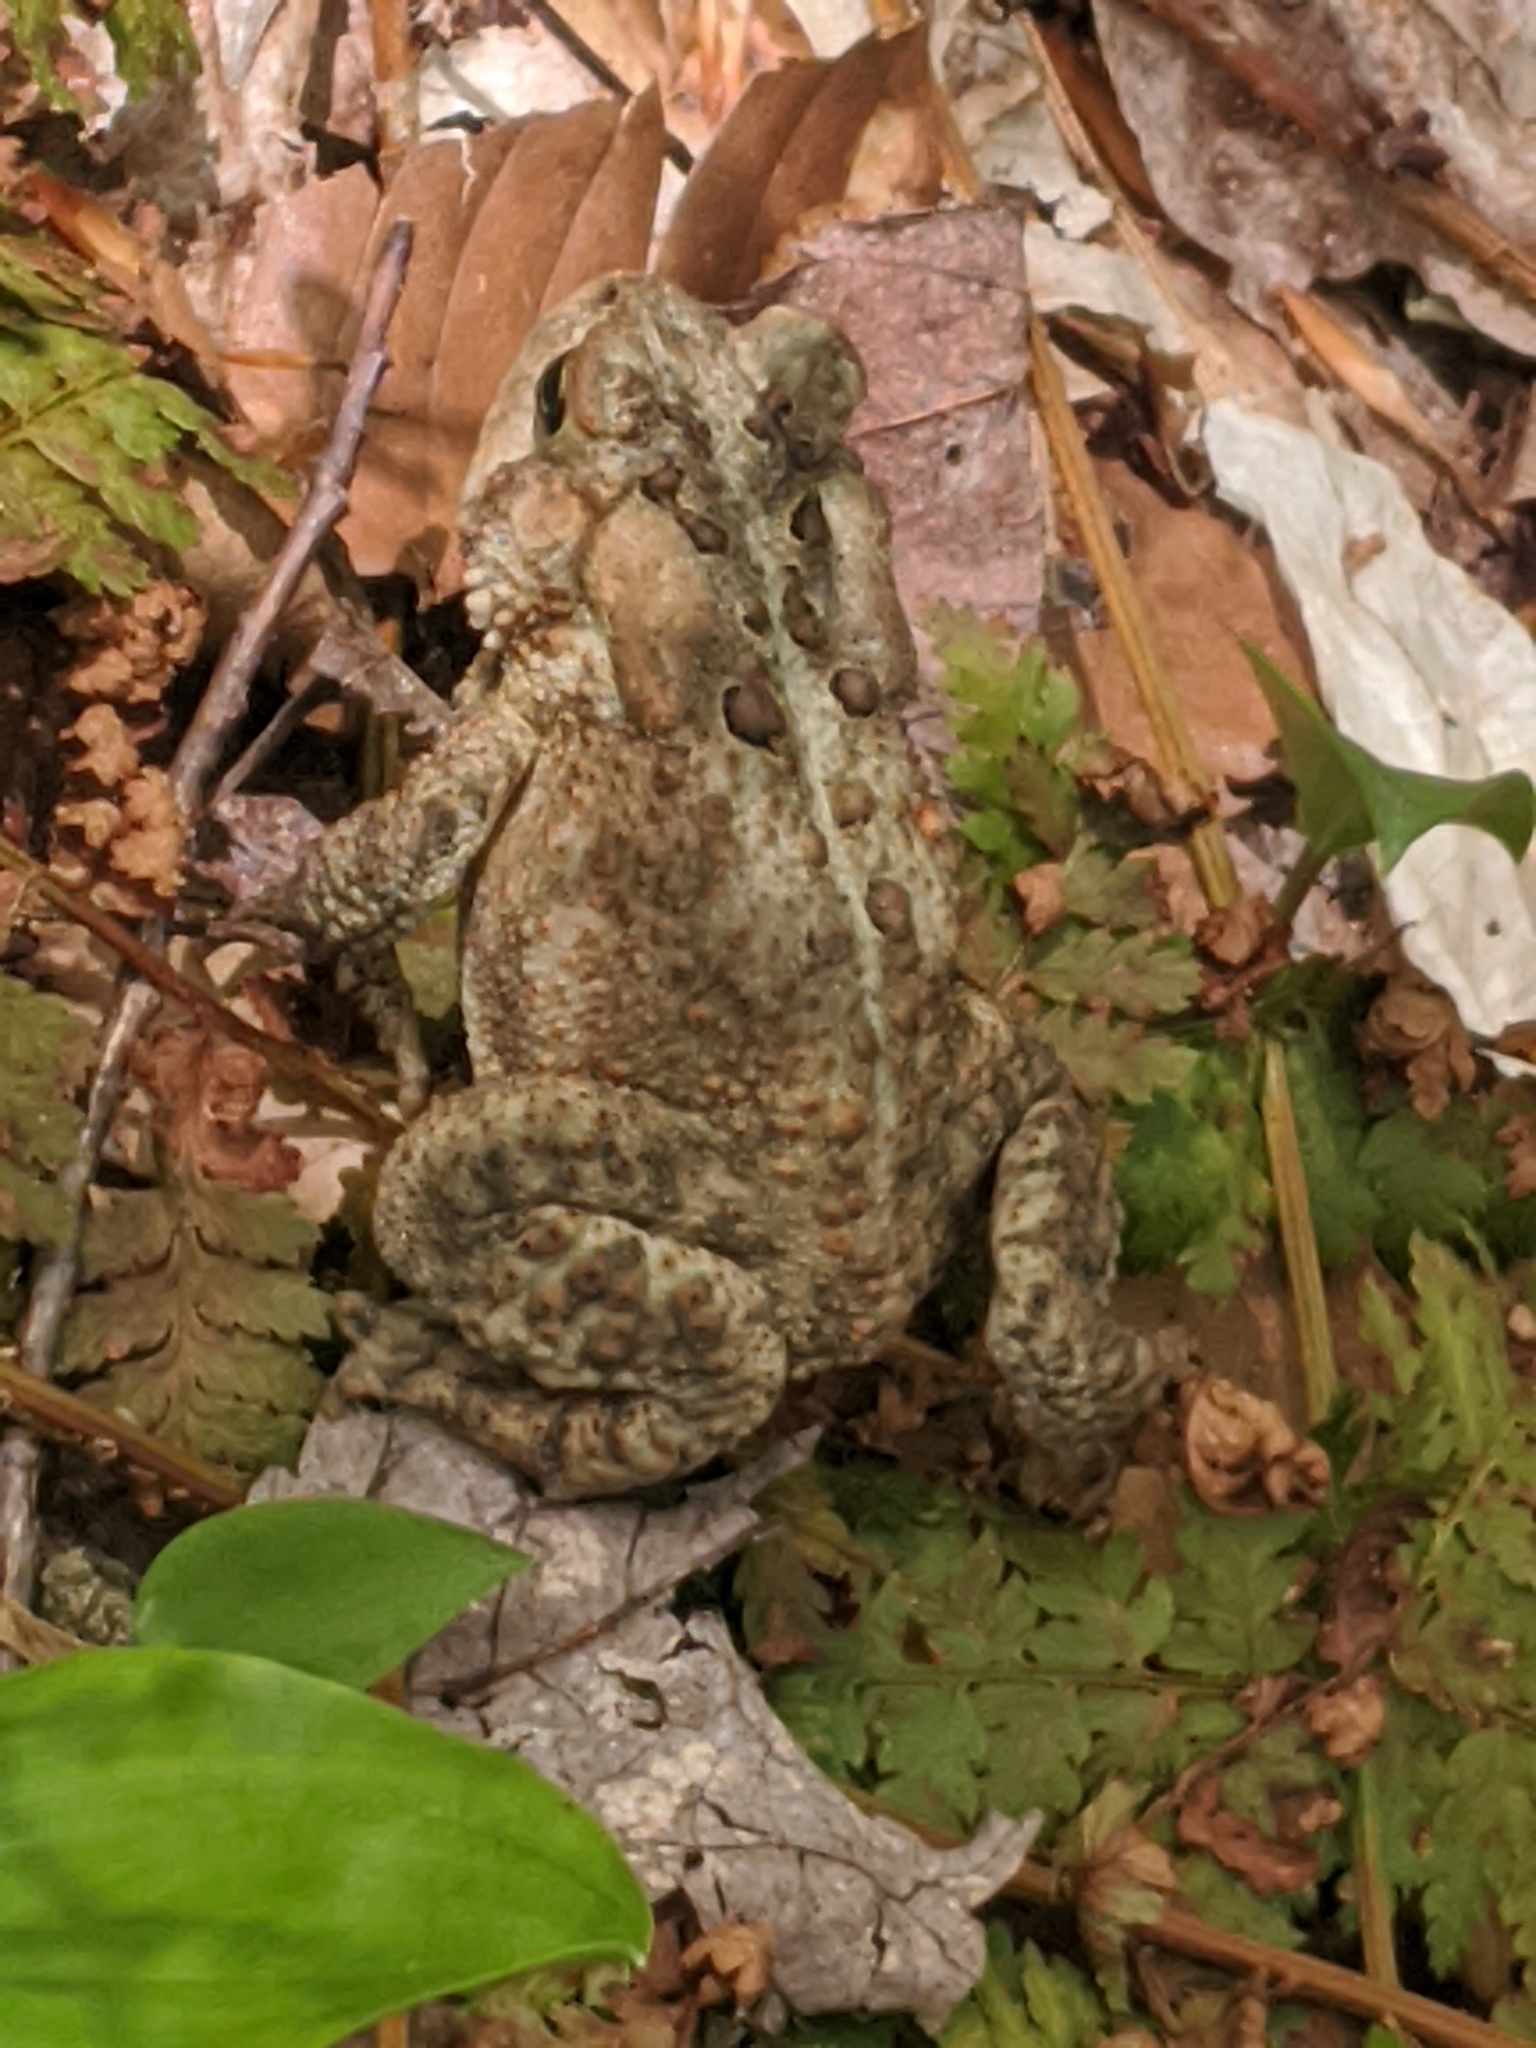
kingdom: Animalia
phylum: Chordata
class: Amphibia
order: Anura
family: Bufonidae
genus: Anaxyrus
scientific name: Anaxyrus americanus
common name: American toad
